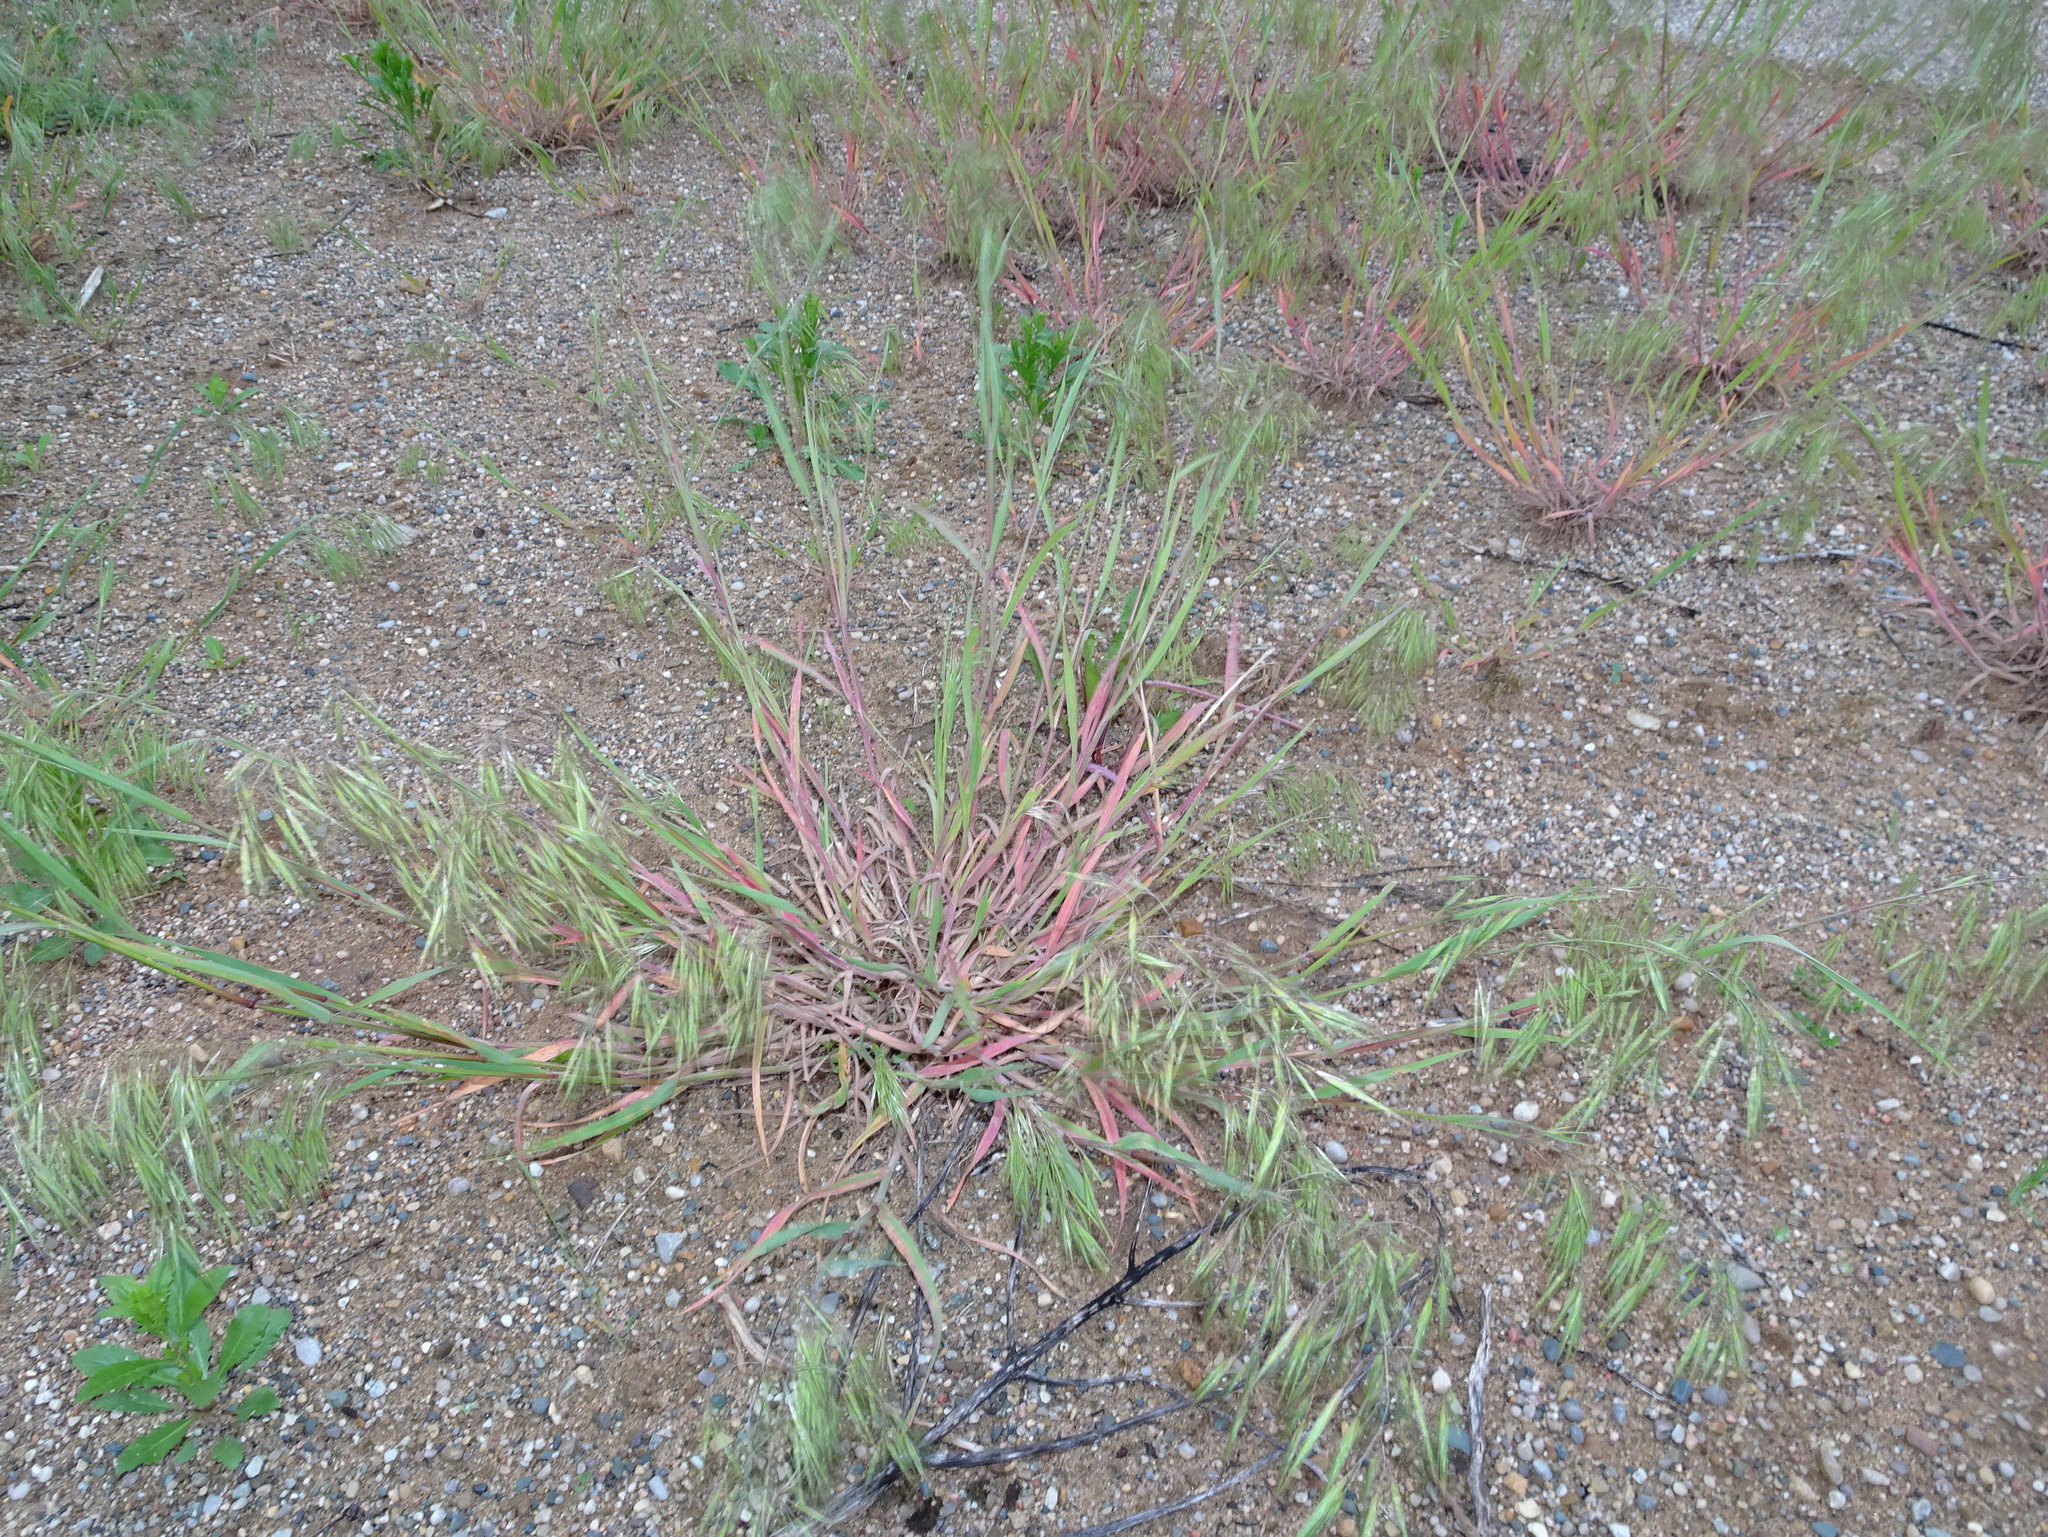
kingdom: Plantae
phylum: Tracheophyta
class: Liliopsida
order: Poales
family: Poaceae
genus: Bromus
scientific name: Bromus tectorum
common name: Cheatgrass
